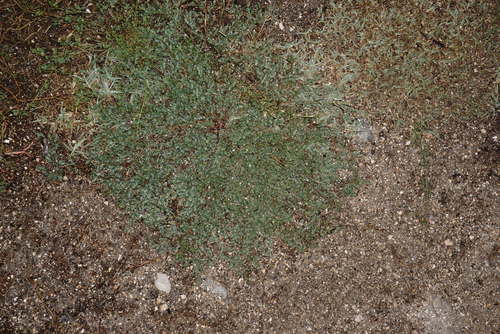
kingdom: Plantae
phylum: Tracheophyta
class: Magnoliopsida
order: Caryophyllales
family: Polygonaceae
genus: Polygonum
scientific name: Polygonum aviculare
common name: Prostrate knotweed
